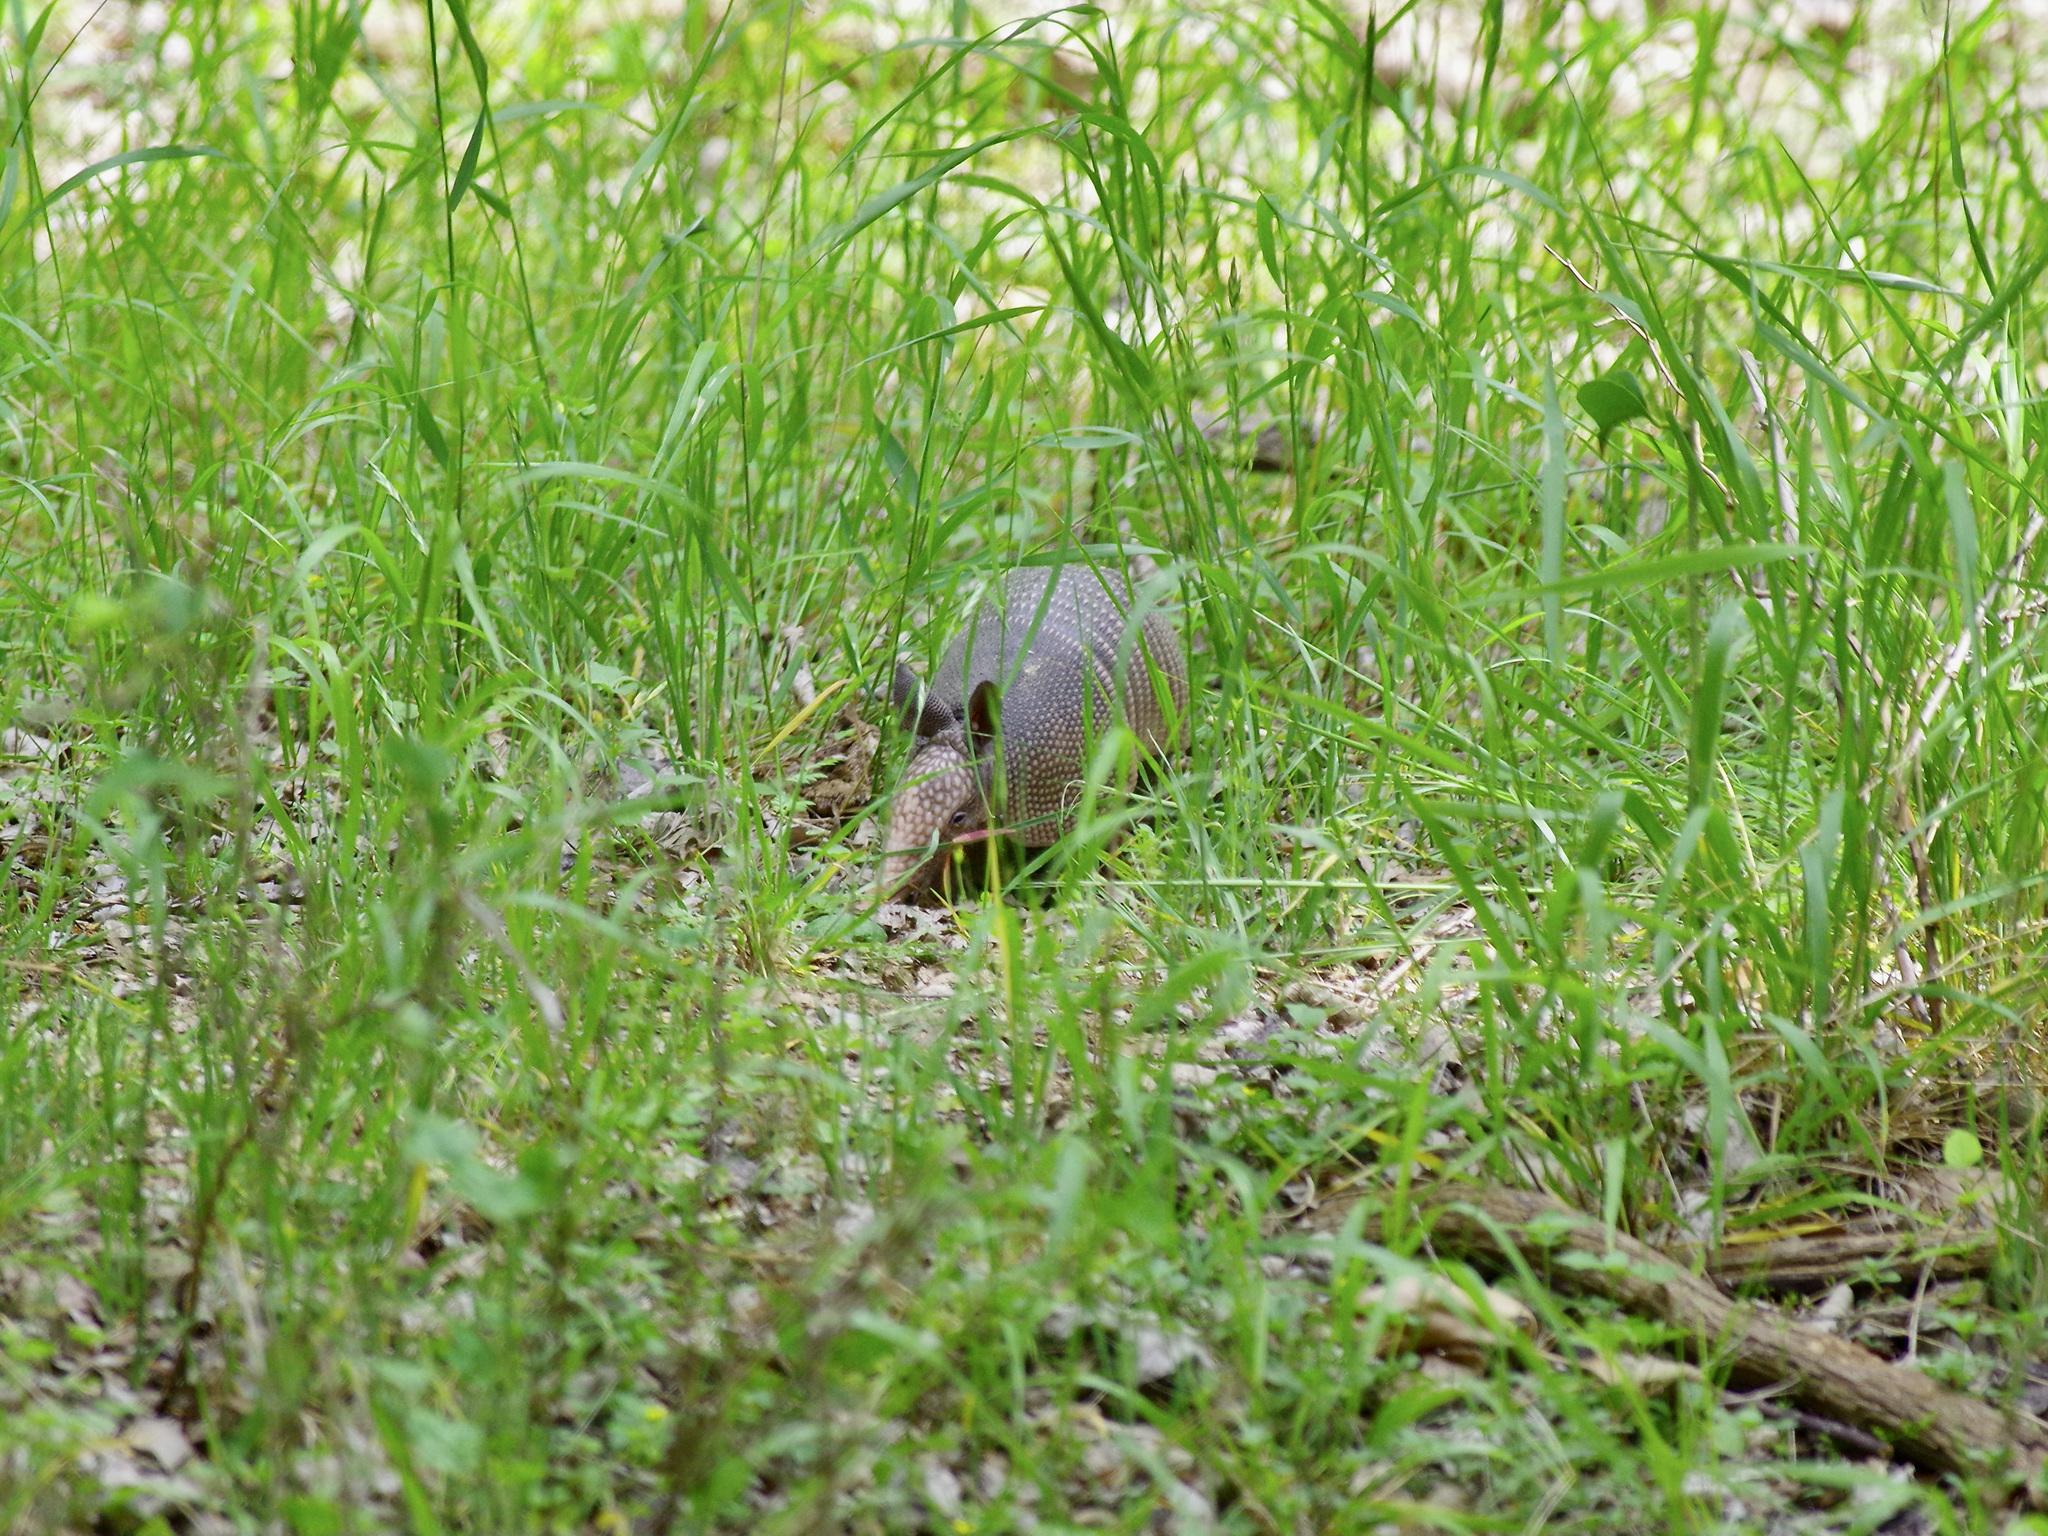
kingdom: Animalia
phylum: Chordata
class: Mammalia
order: Cingulata
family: Dasypodidae
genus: Dasypus
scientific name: Dasypus novemcinctus
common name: Nine-banded armadillo
